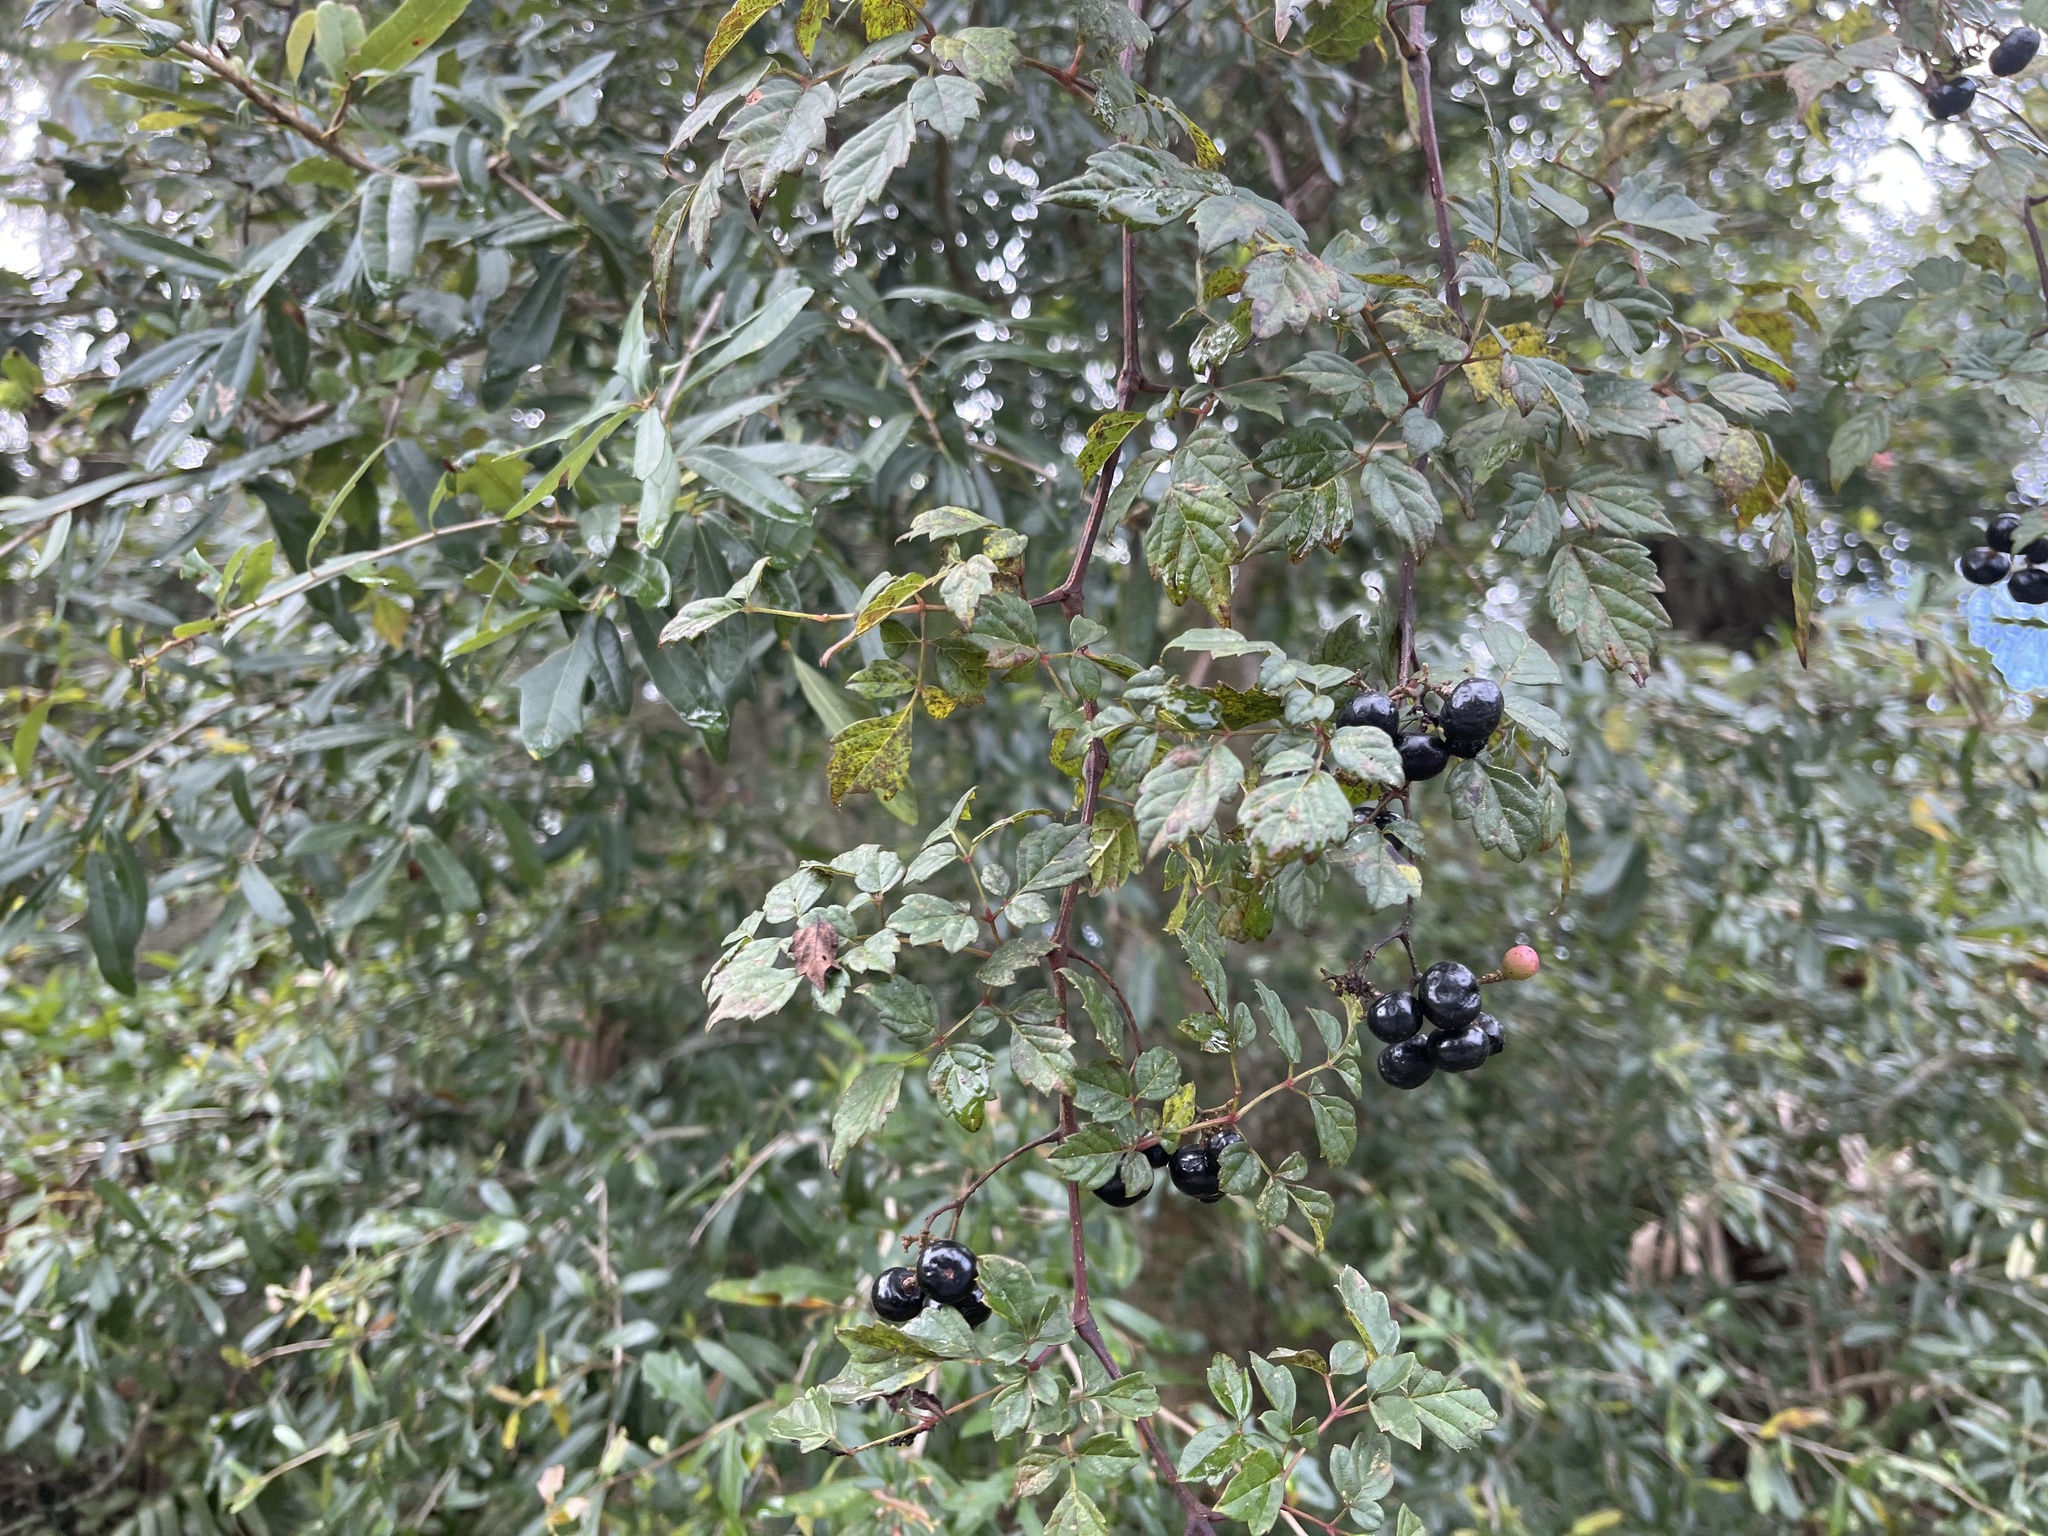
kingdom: Plantae
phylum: Tracheophyta
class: Magnoliopsida
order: Vitales
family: Vitaceae
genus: Nekemias
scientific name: Nekemias arborea
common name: Peppervine
